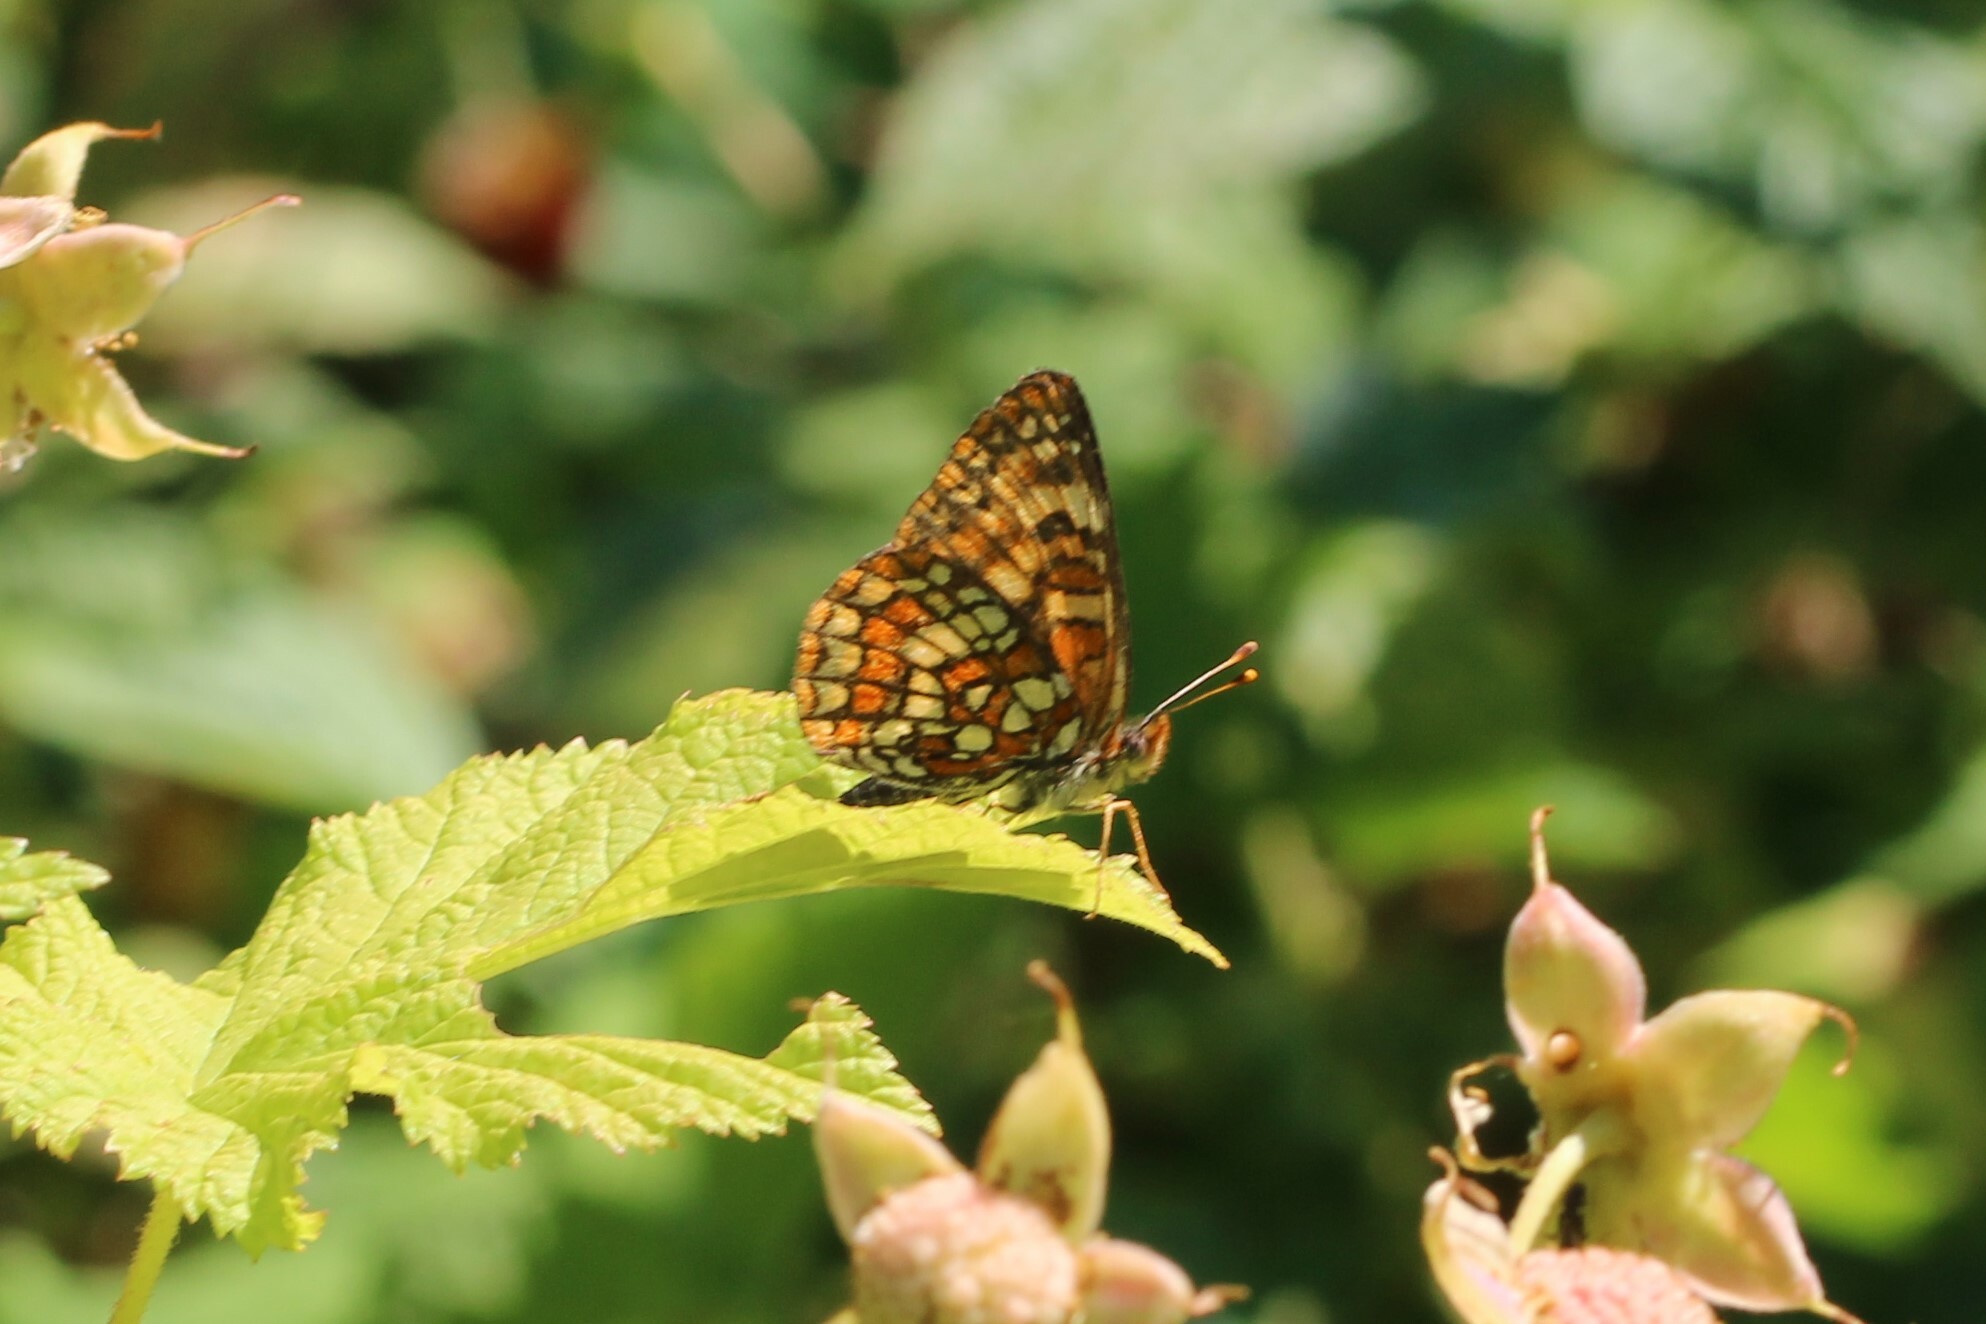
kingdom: Animalia
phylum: Arthropoda
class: Insecta
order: Lepidoptera
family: Nymphalidae
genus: Chlosyne
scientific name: Chlosyne palla
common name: Northern checkerspot
